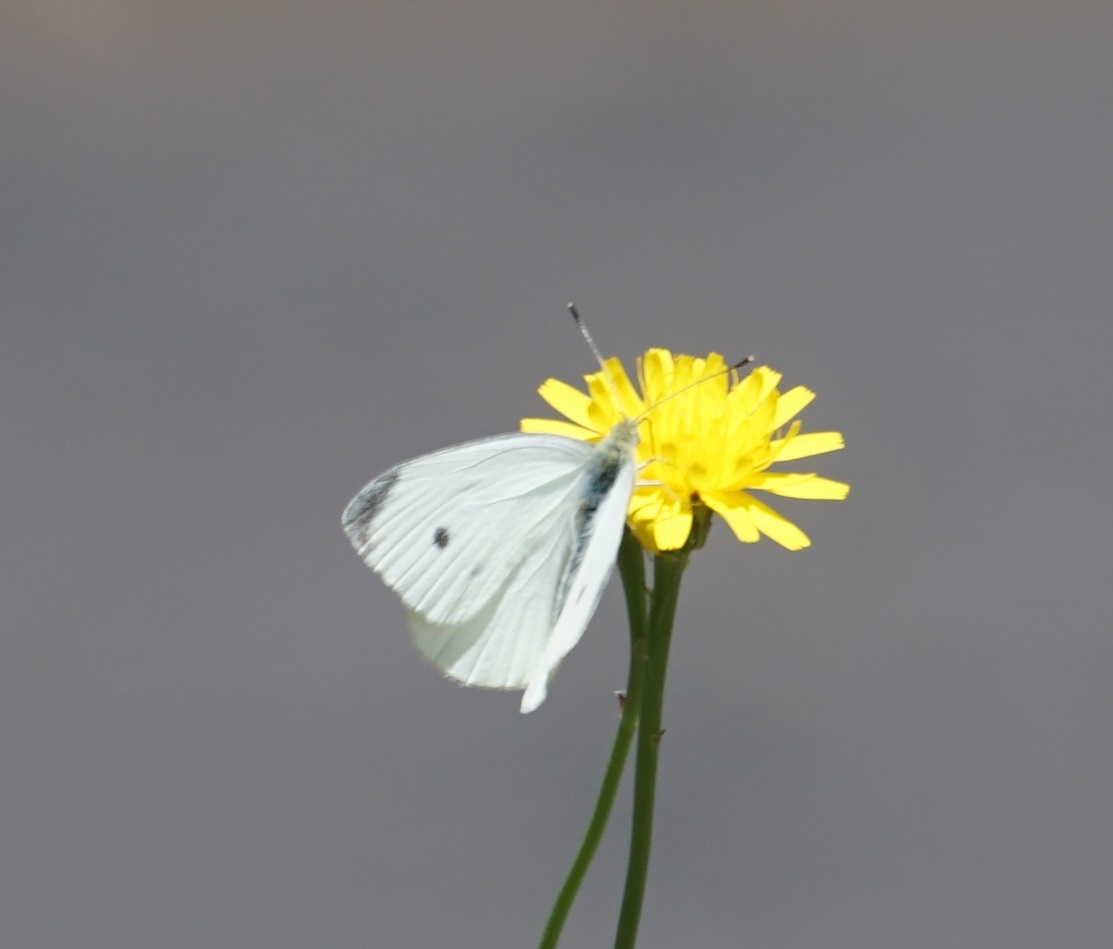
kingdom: Animalia
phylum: Arthropoda
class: Insecta
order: Lepidoptera
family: Pieridae
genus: Pieris
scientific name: Pieris rapae
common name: Small white
